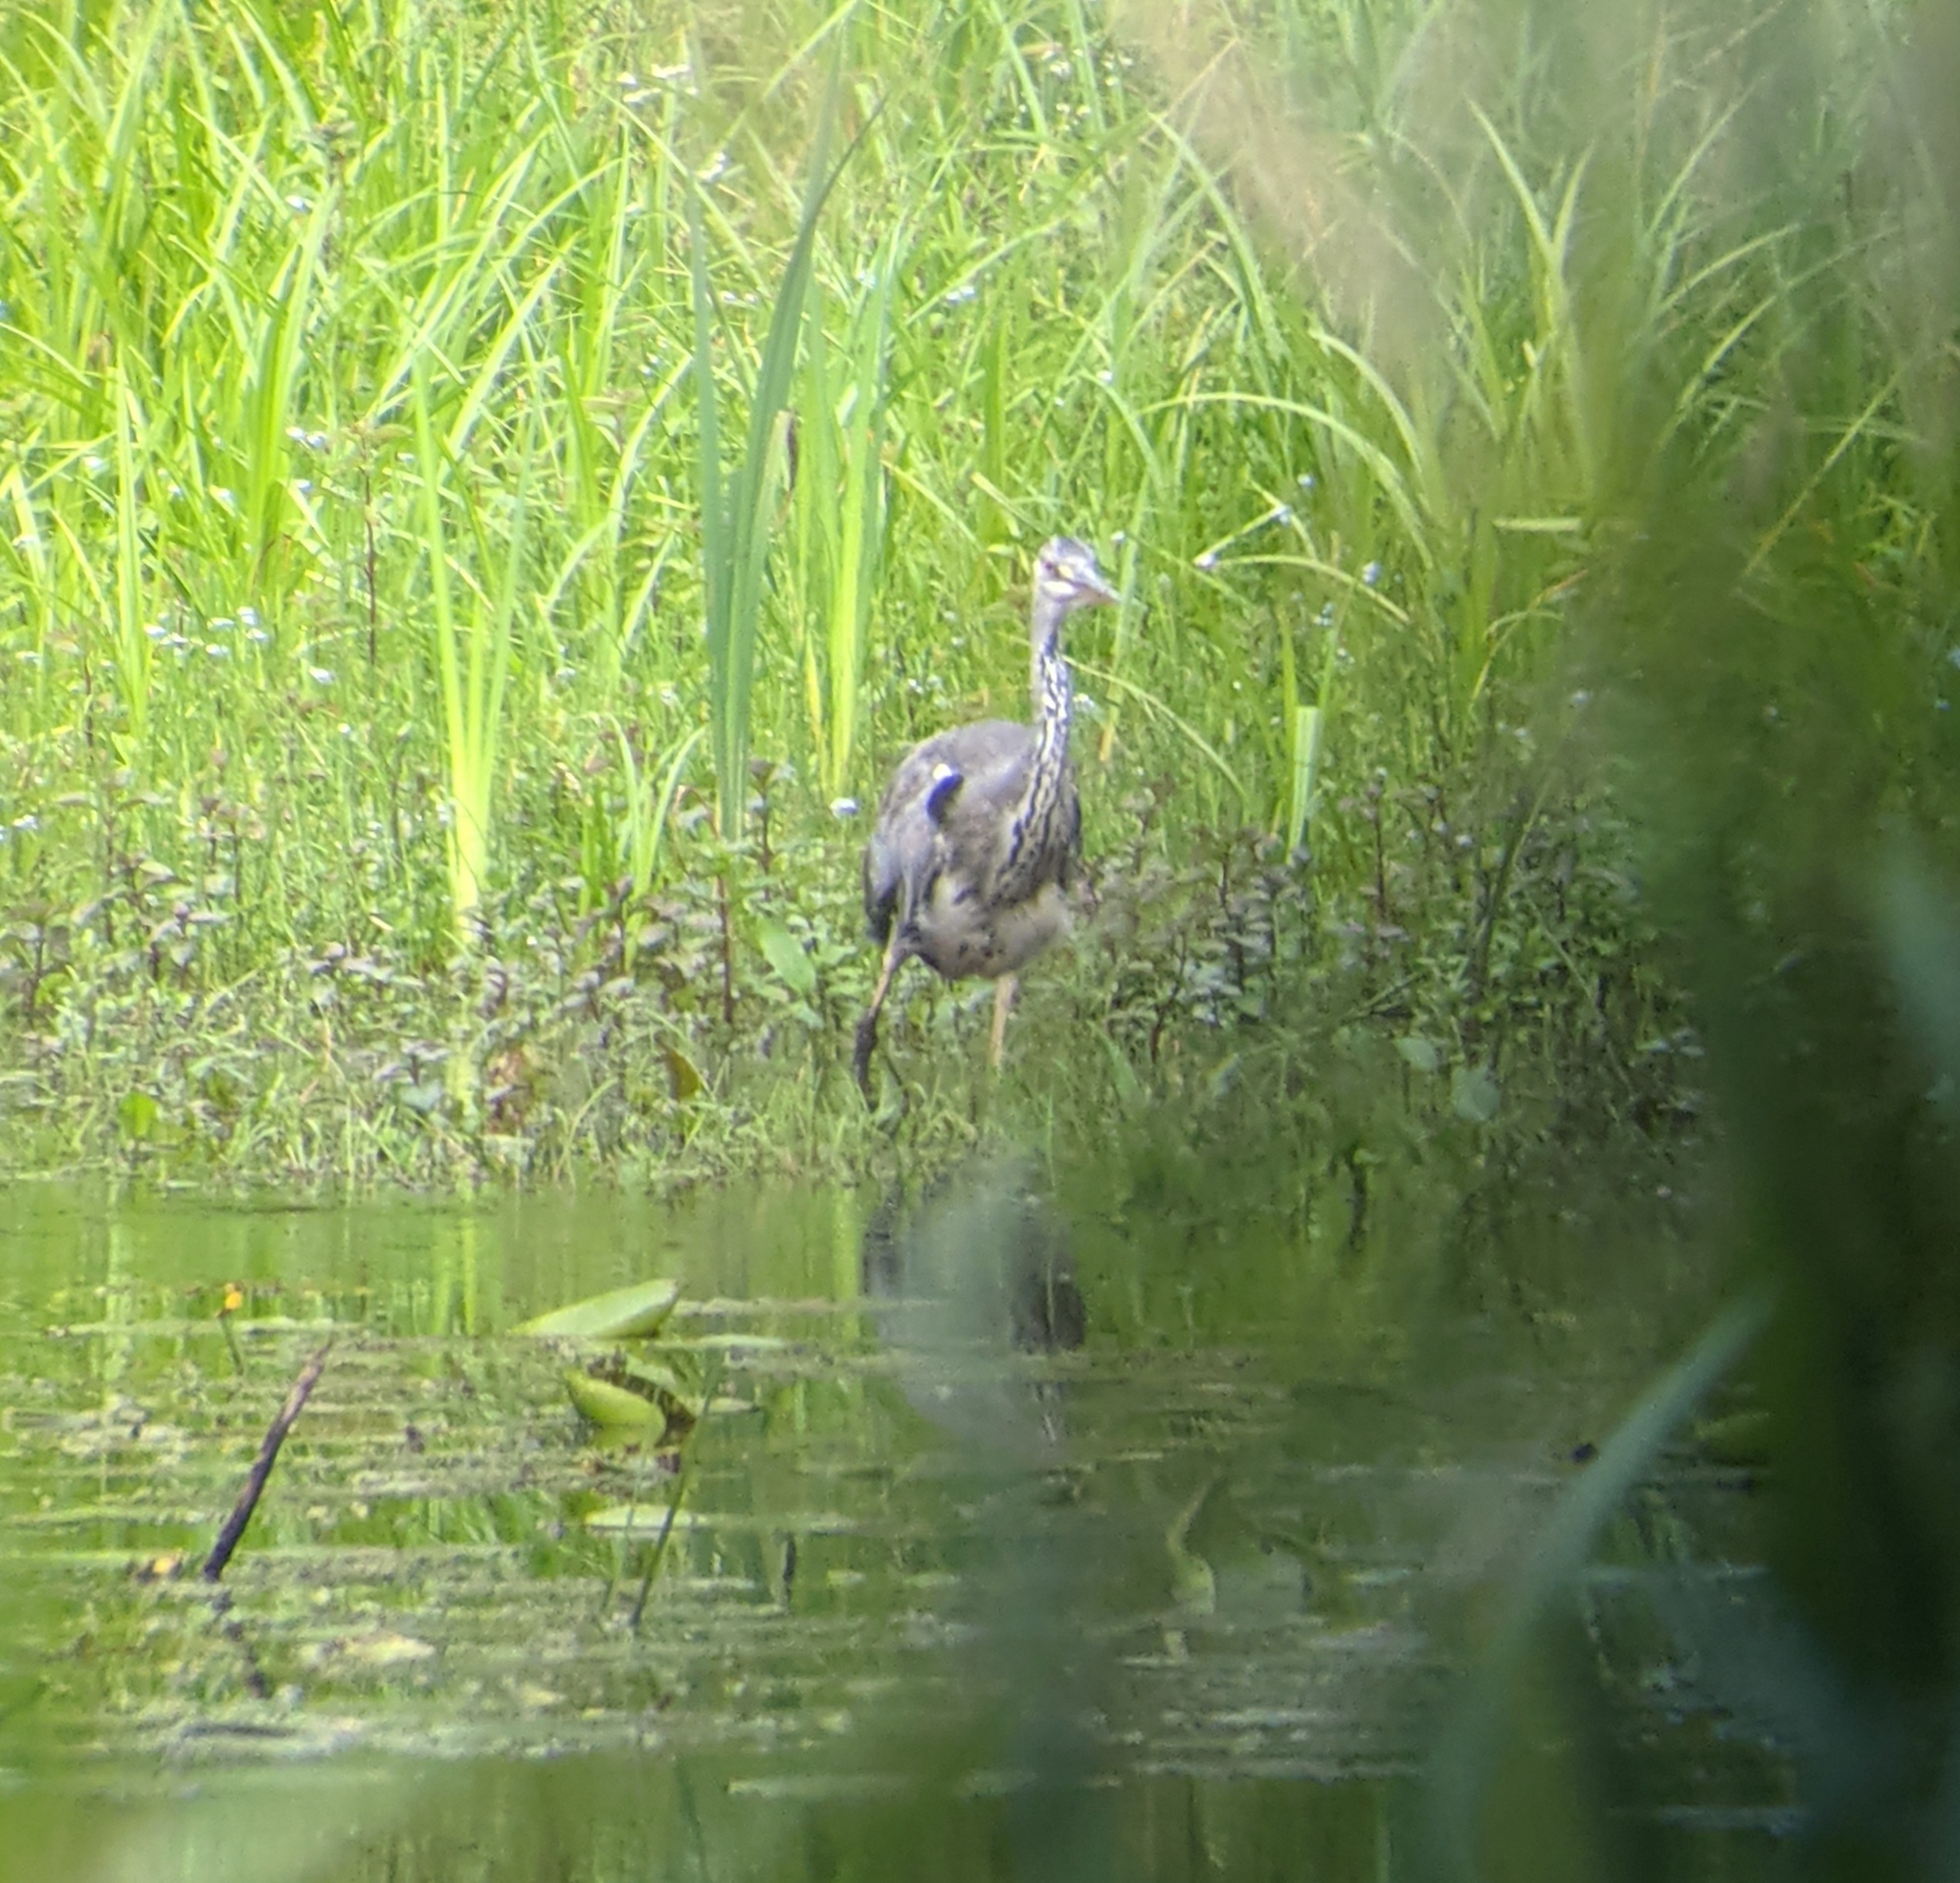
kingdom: Animalia
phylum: Chordata
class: Aves
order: Pelecaniformes
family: Ardeidae
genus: Ardea
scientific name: Ardea cinerea
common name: Grey heron
